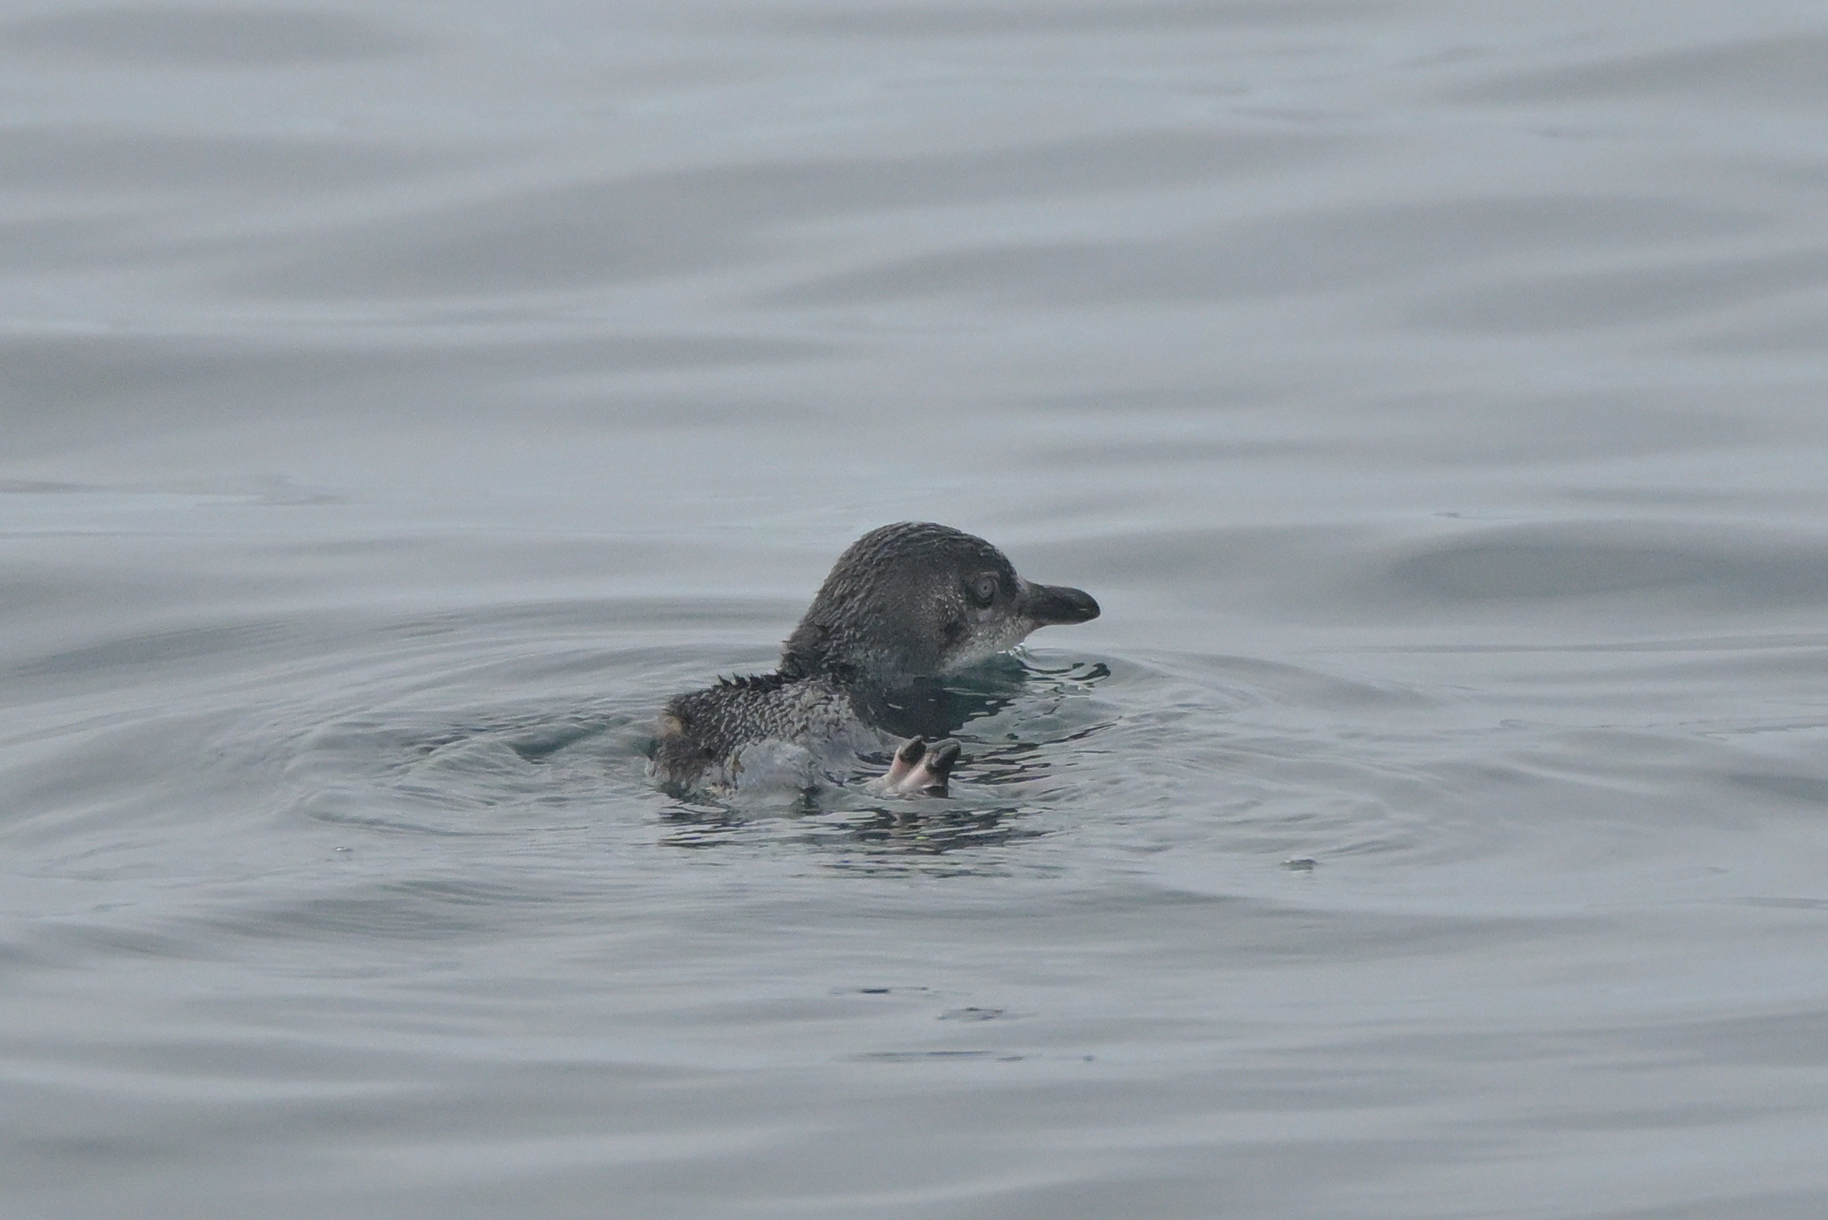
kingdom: Animalia
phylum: Chordata
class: Aves
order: Sphenisciformes
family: Spheniscidae
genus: Eudyptula
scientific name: Eudyptula minor
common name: Little penguin
